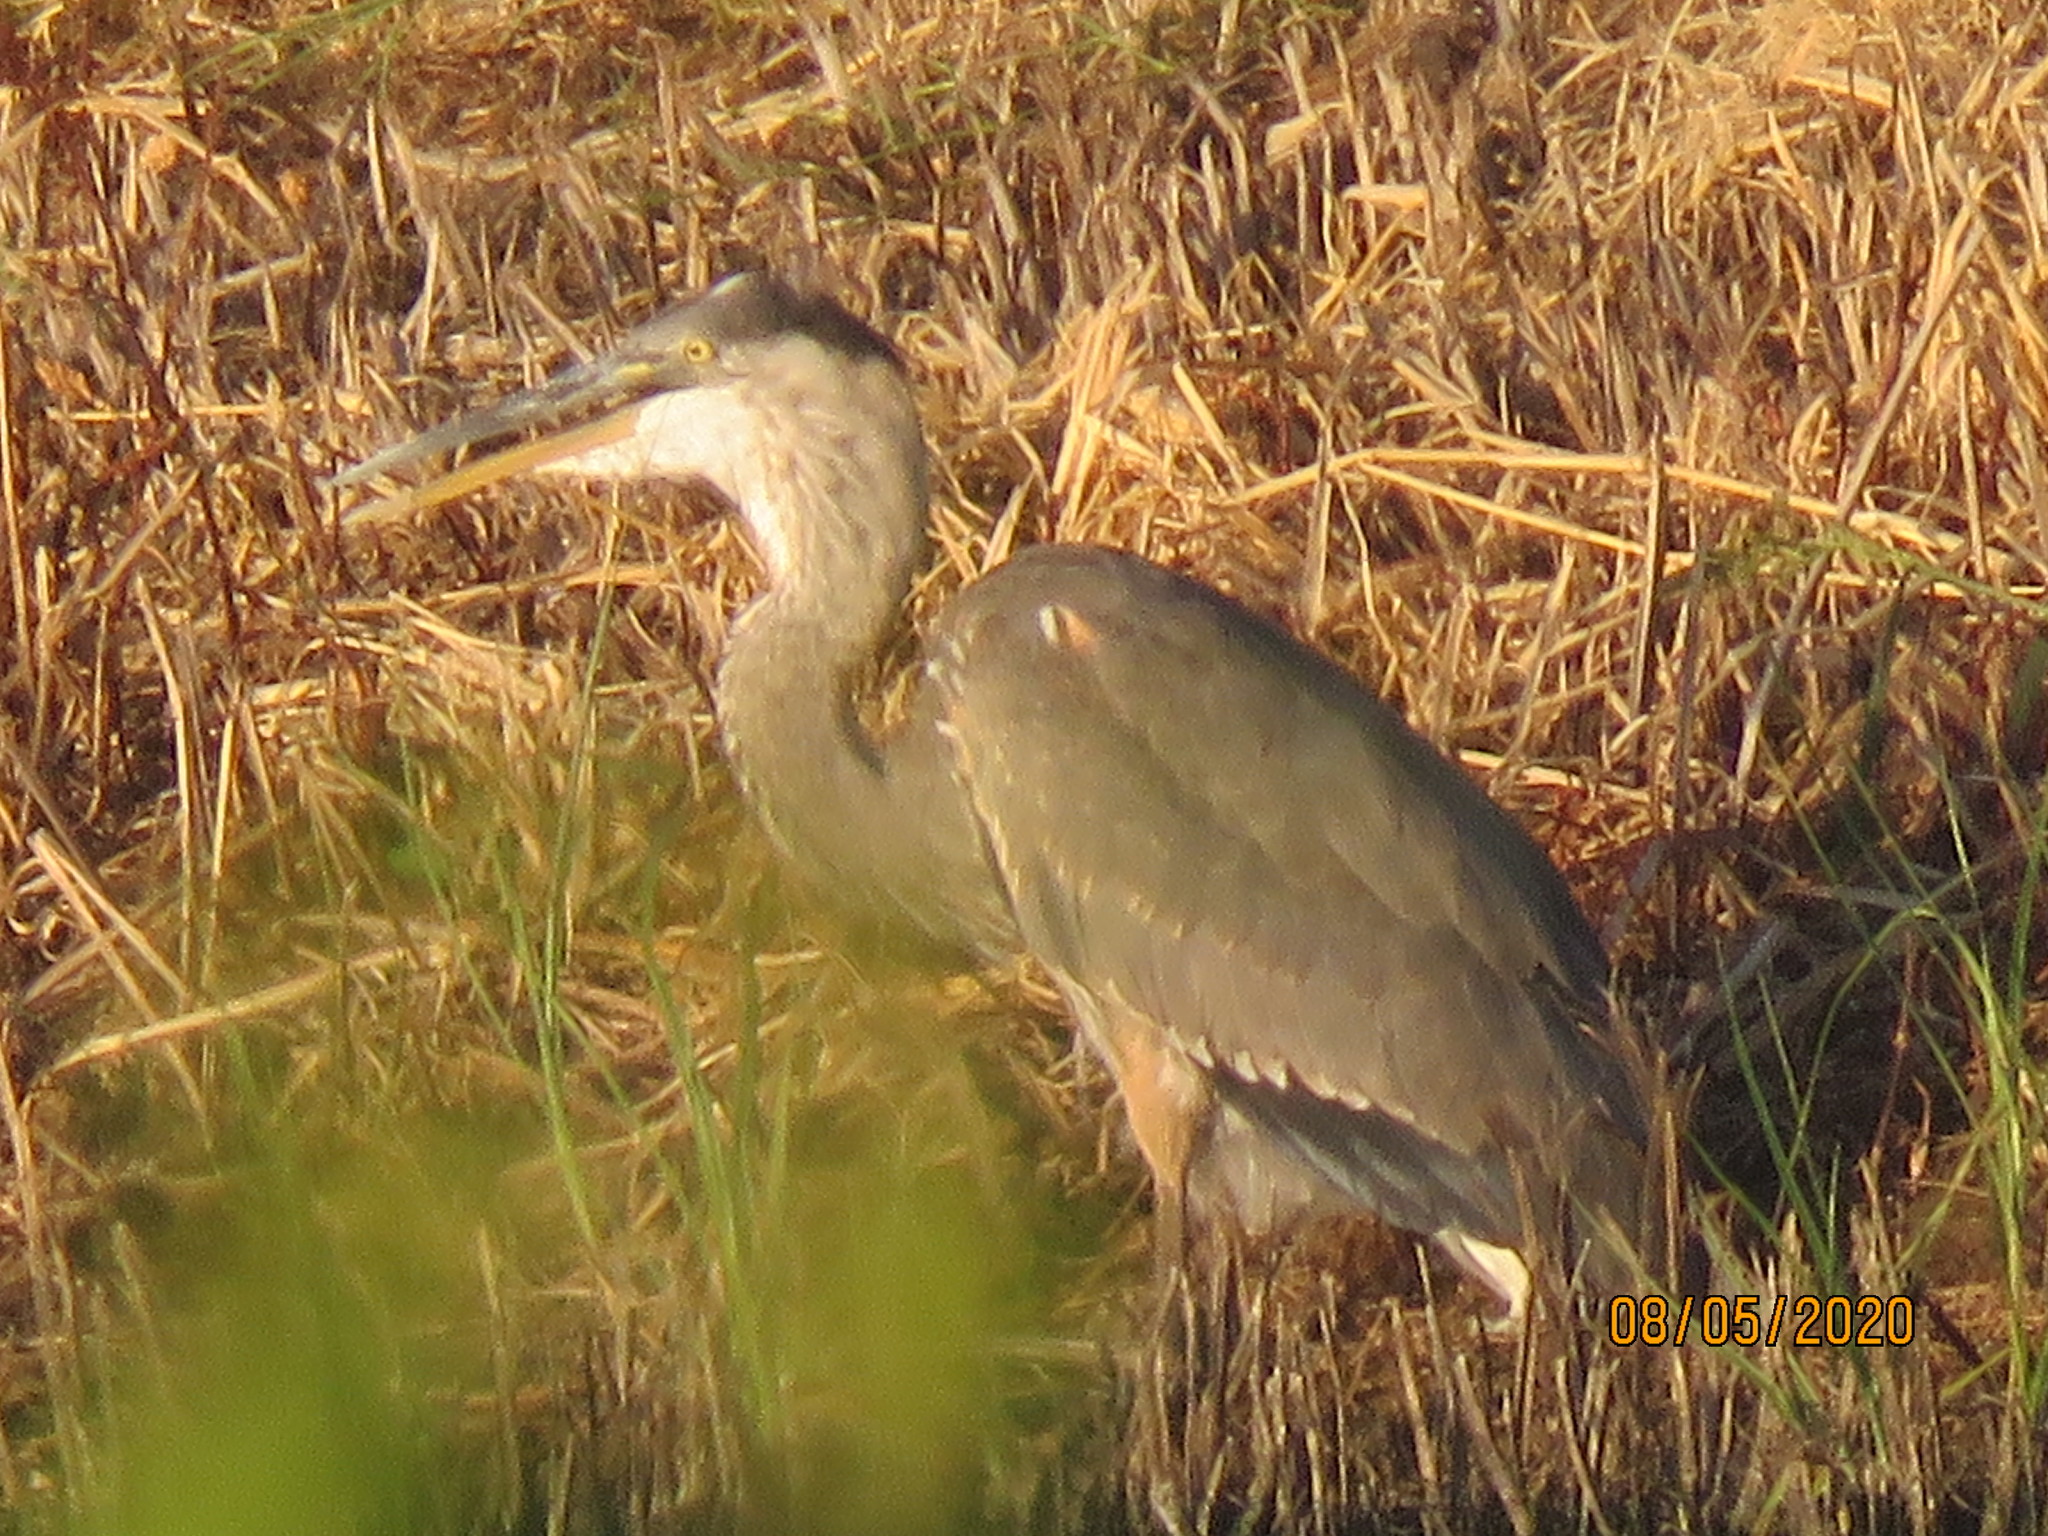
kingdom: Animalia
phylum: Chordata
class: Aves
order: Pelecaniformes
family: Ardeidae
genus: Ardea
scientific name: Ardea herodias
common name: Great blue heron
